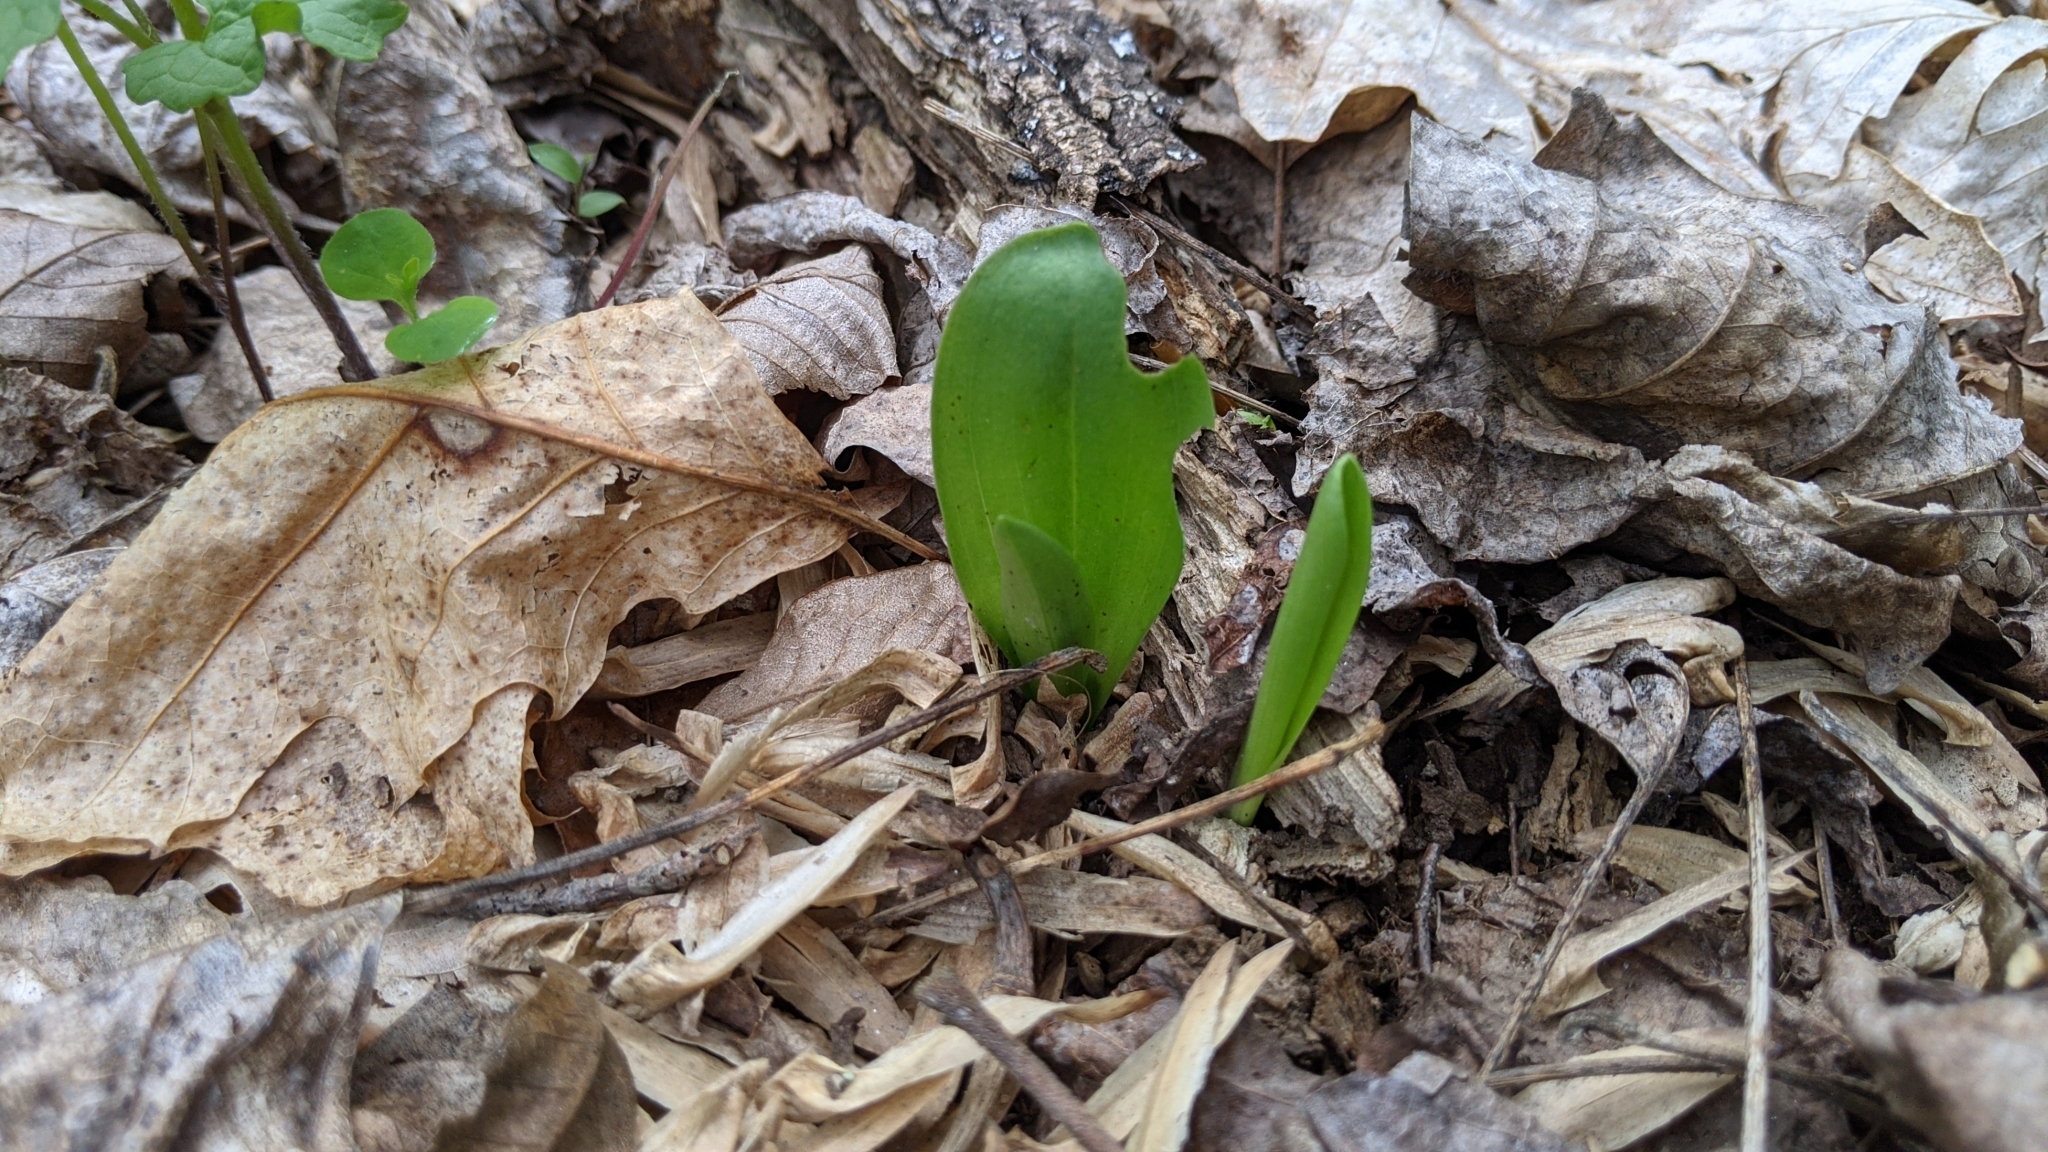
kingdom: Plantae
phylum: Tracheophyta
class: Liliopsida
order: Asparagales
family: Orchidaceae
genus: Galearis
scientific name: Galearis spectabilis
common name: Purple-hooded orchis
